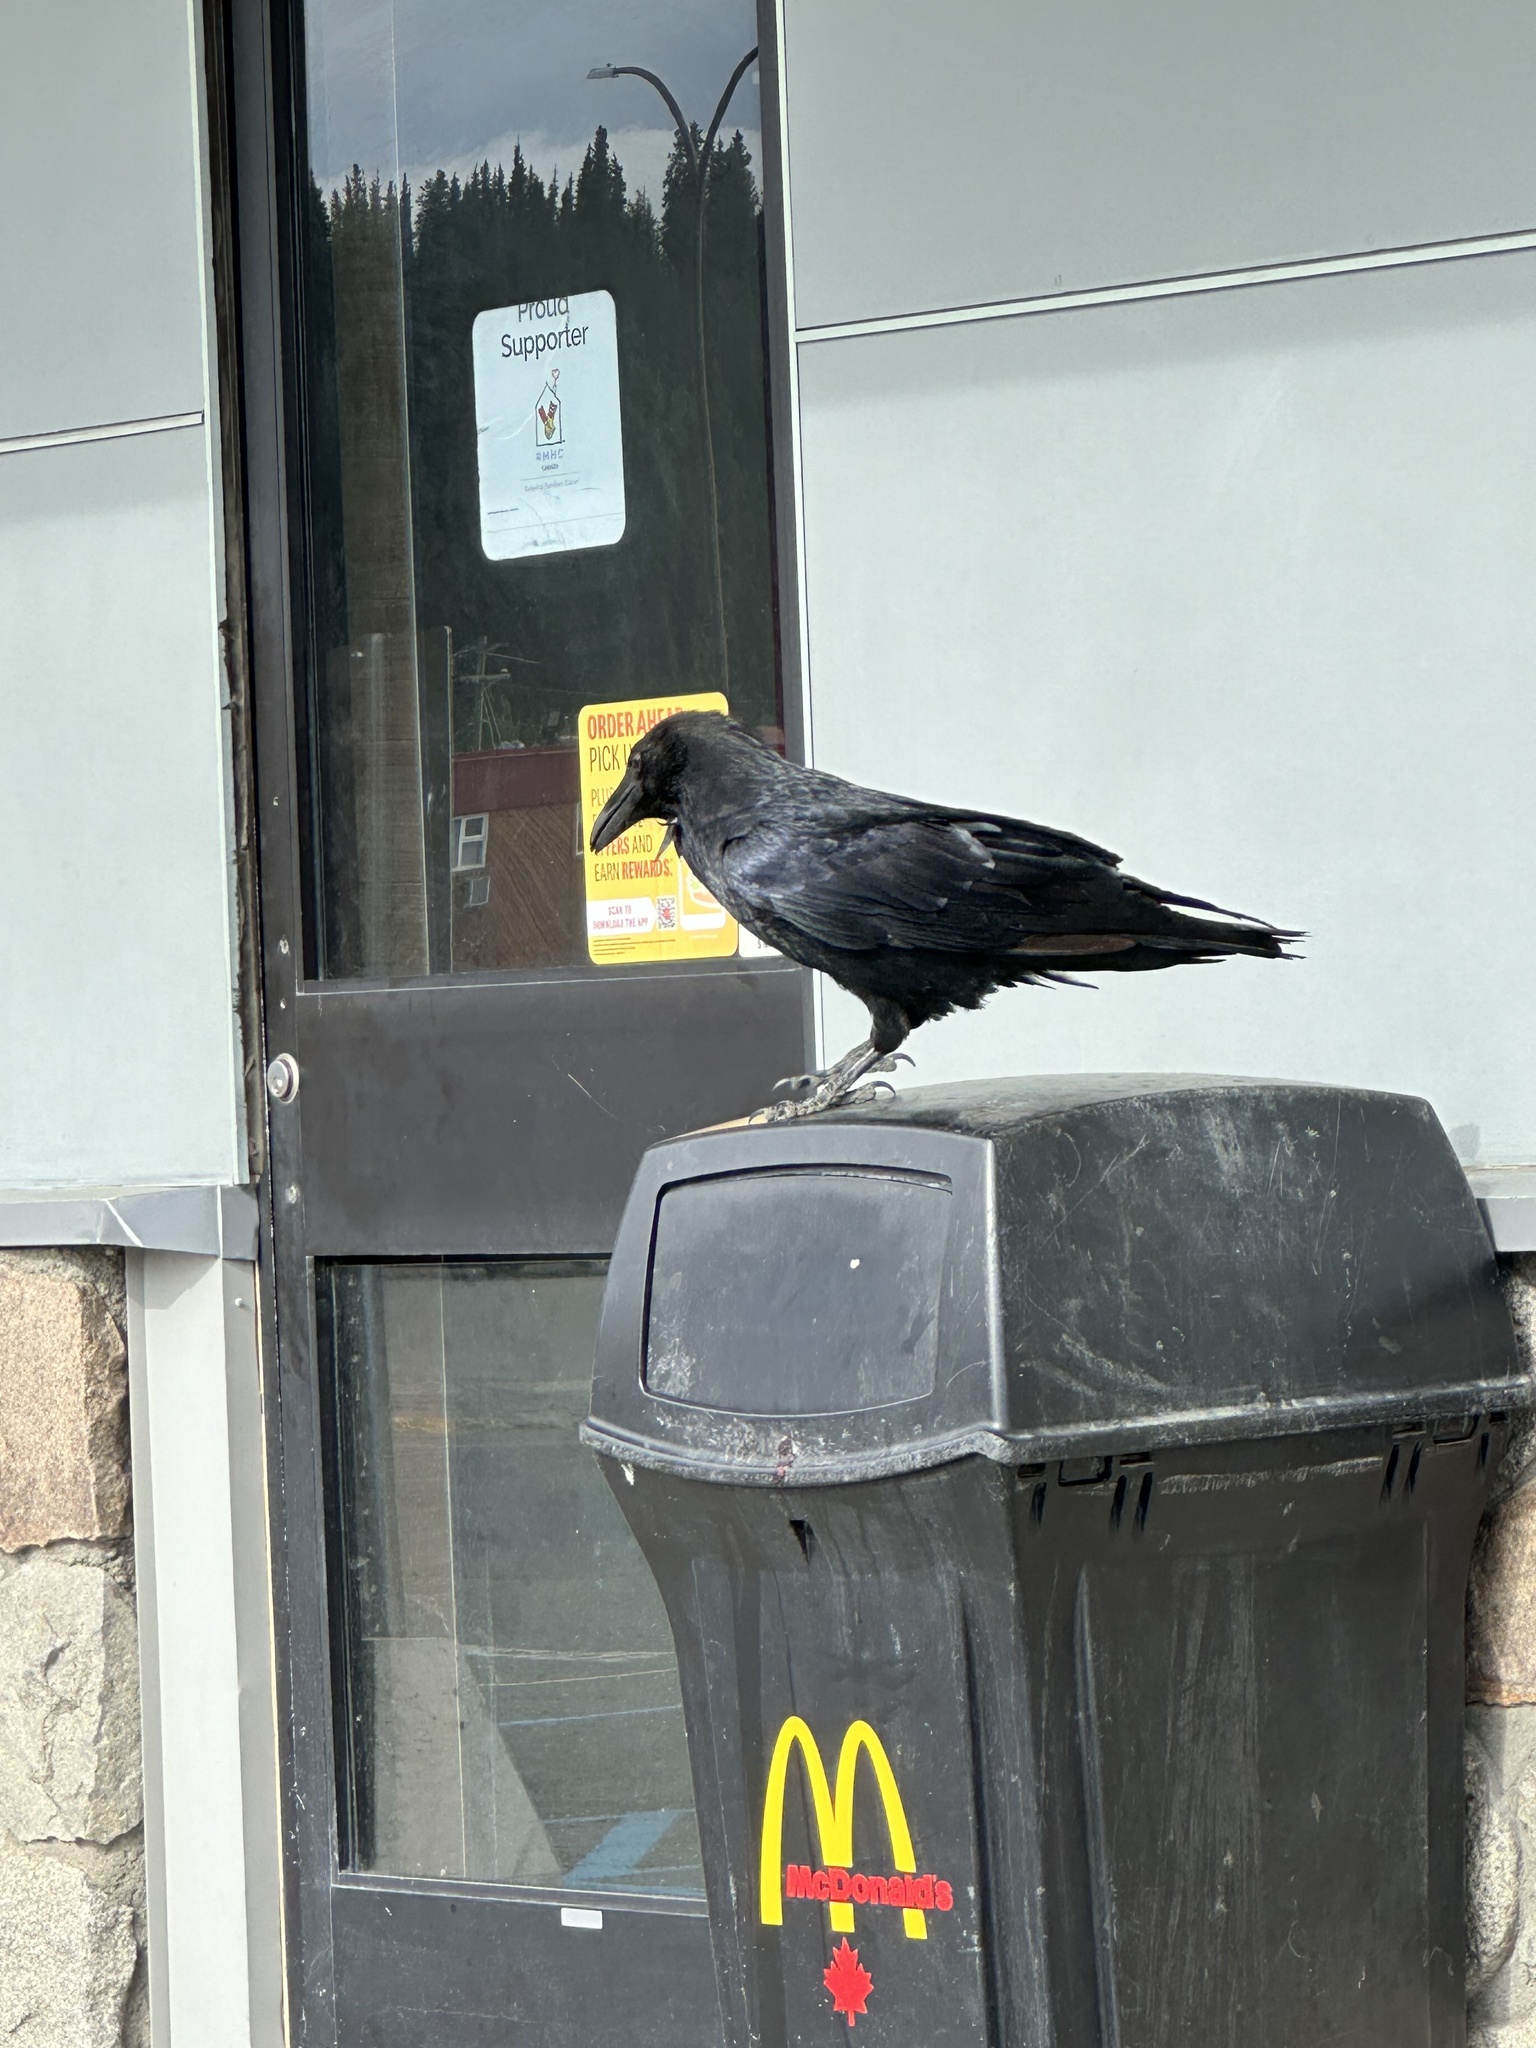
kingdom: Animalia
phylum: Chordata
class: Aves
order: Passeriformes
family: Corvidae
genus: Corvus
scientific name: Corvus corax
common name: Common raven
